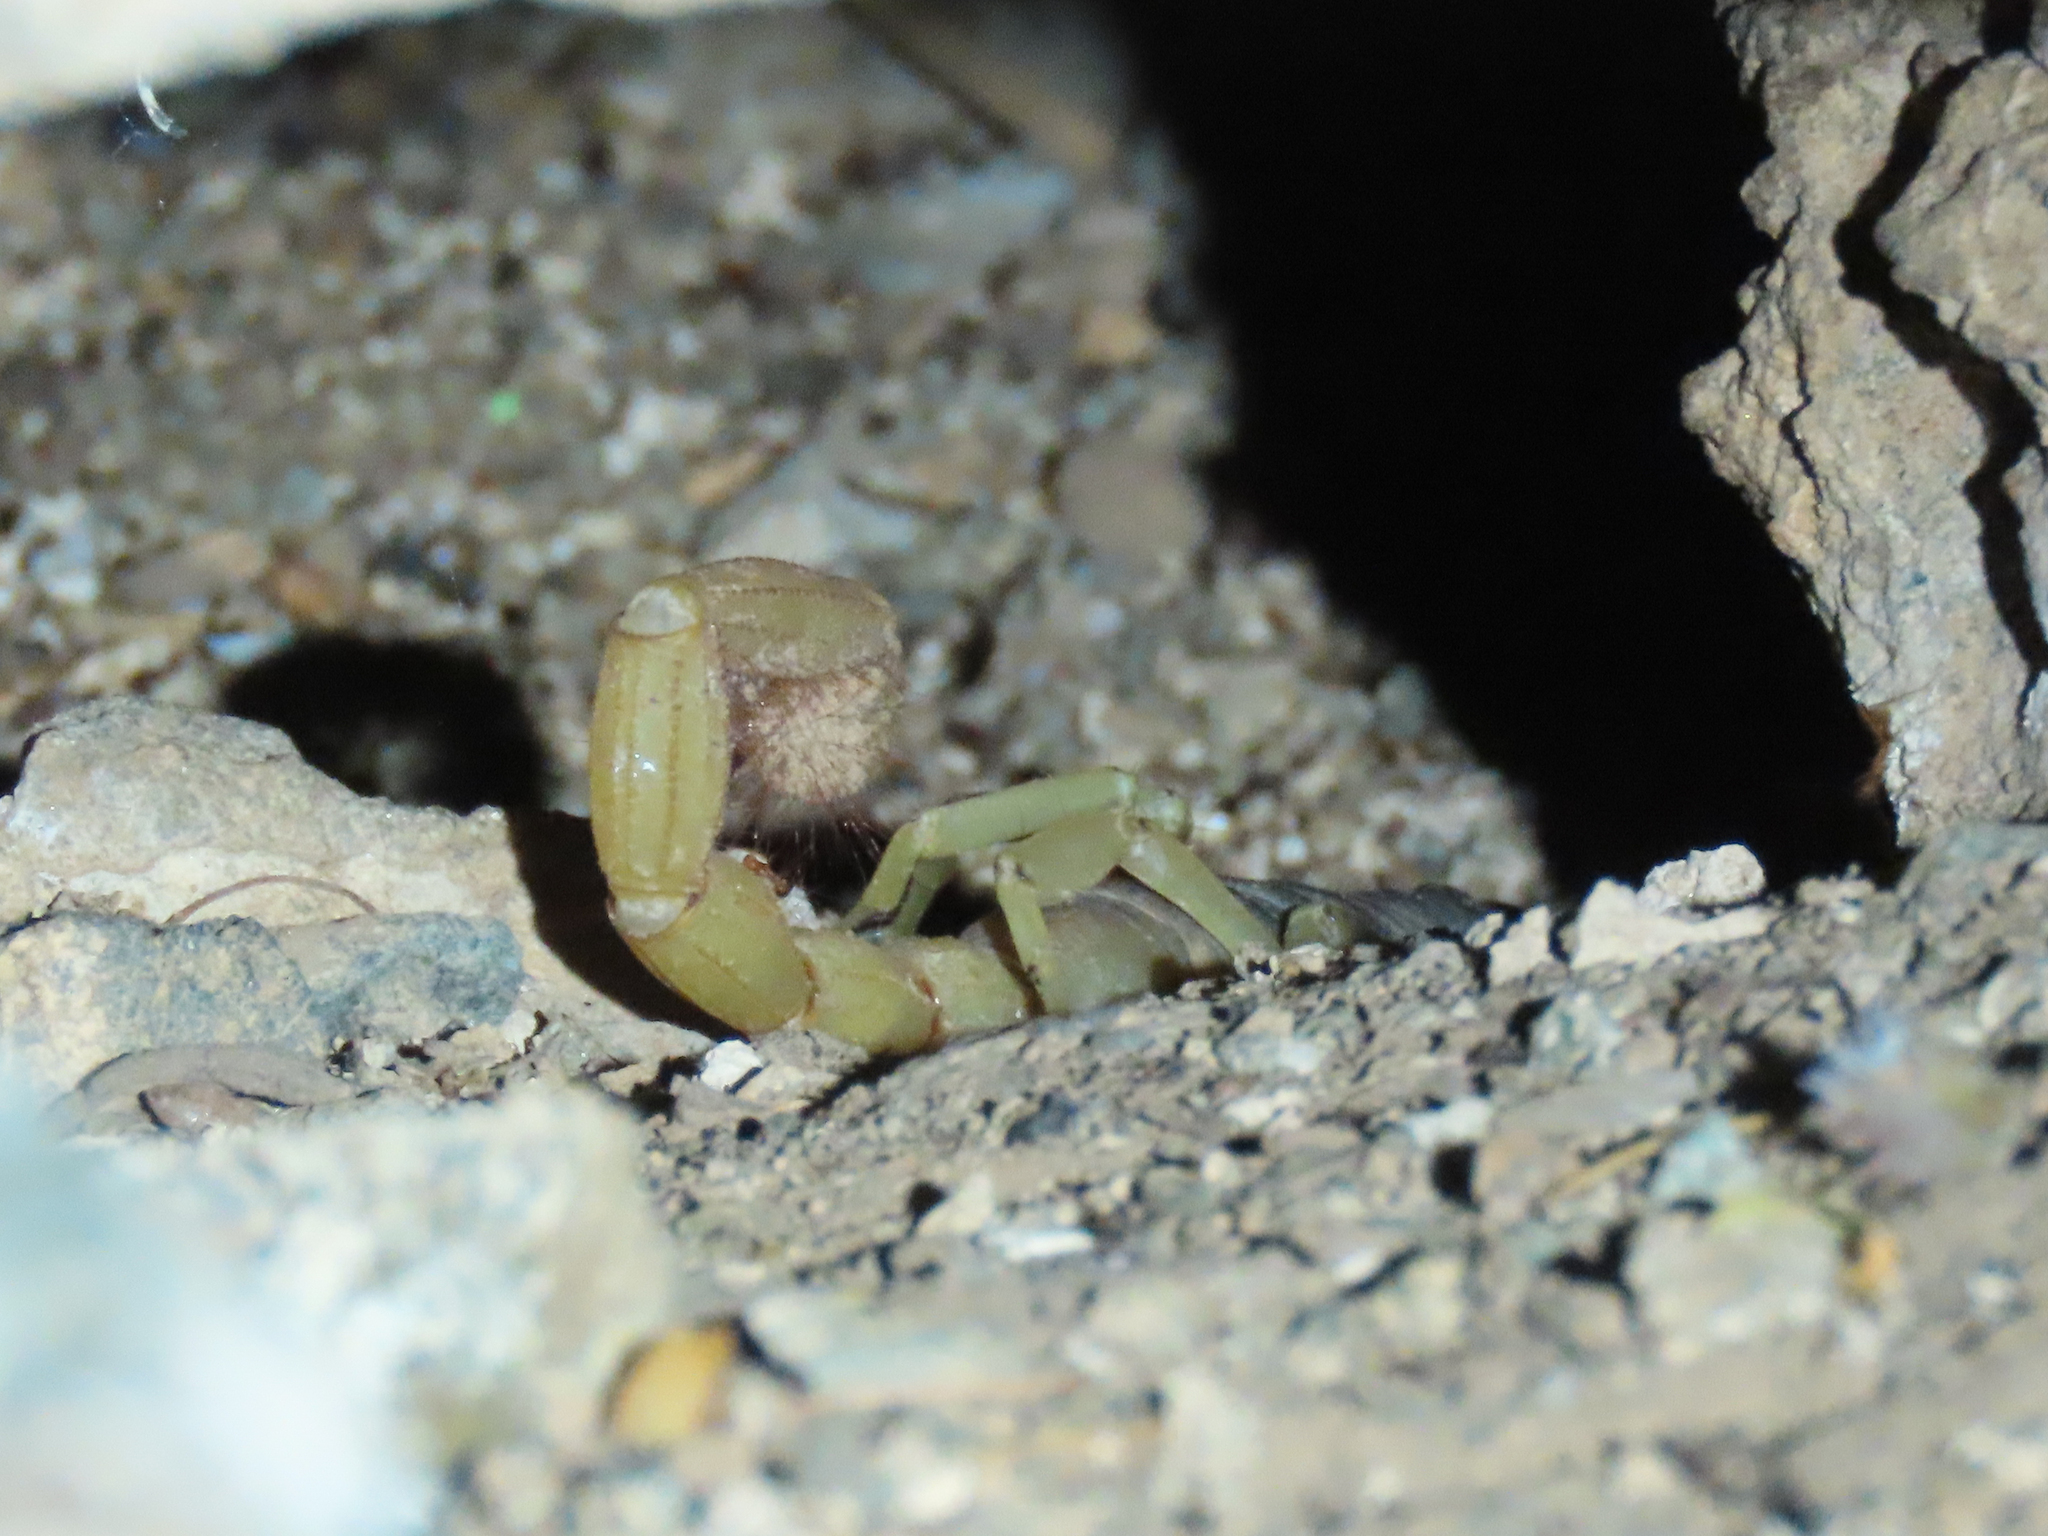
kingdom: Animalia
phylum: Arthropoda
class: Arachnida
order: Scorpiones
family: Hadruridae
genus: Hadrurus
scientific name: Hadrurus arizonensis
